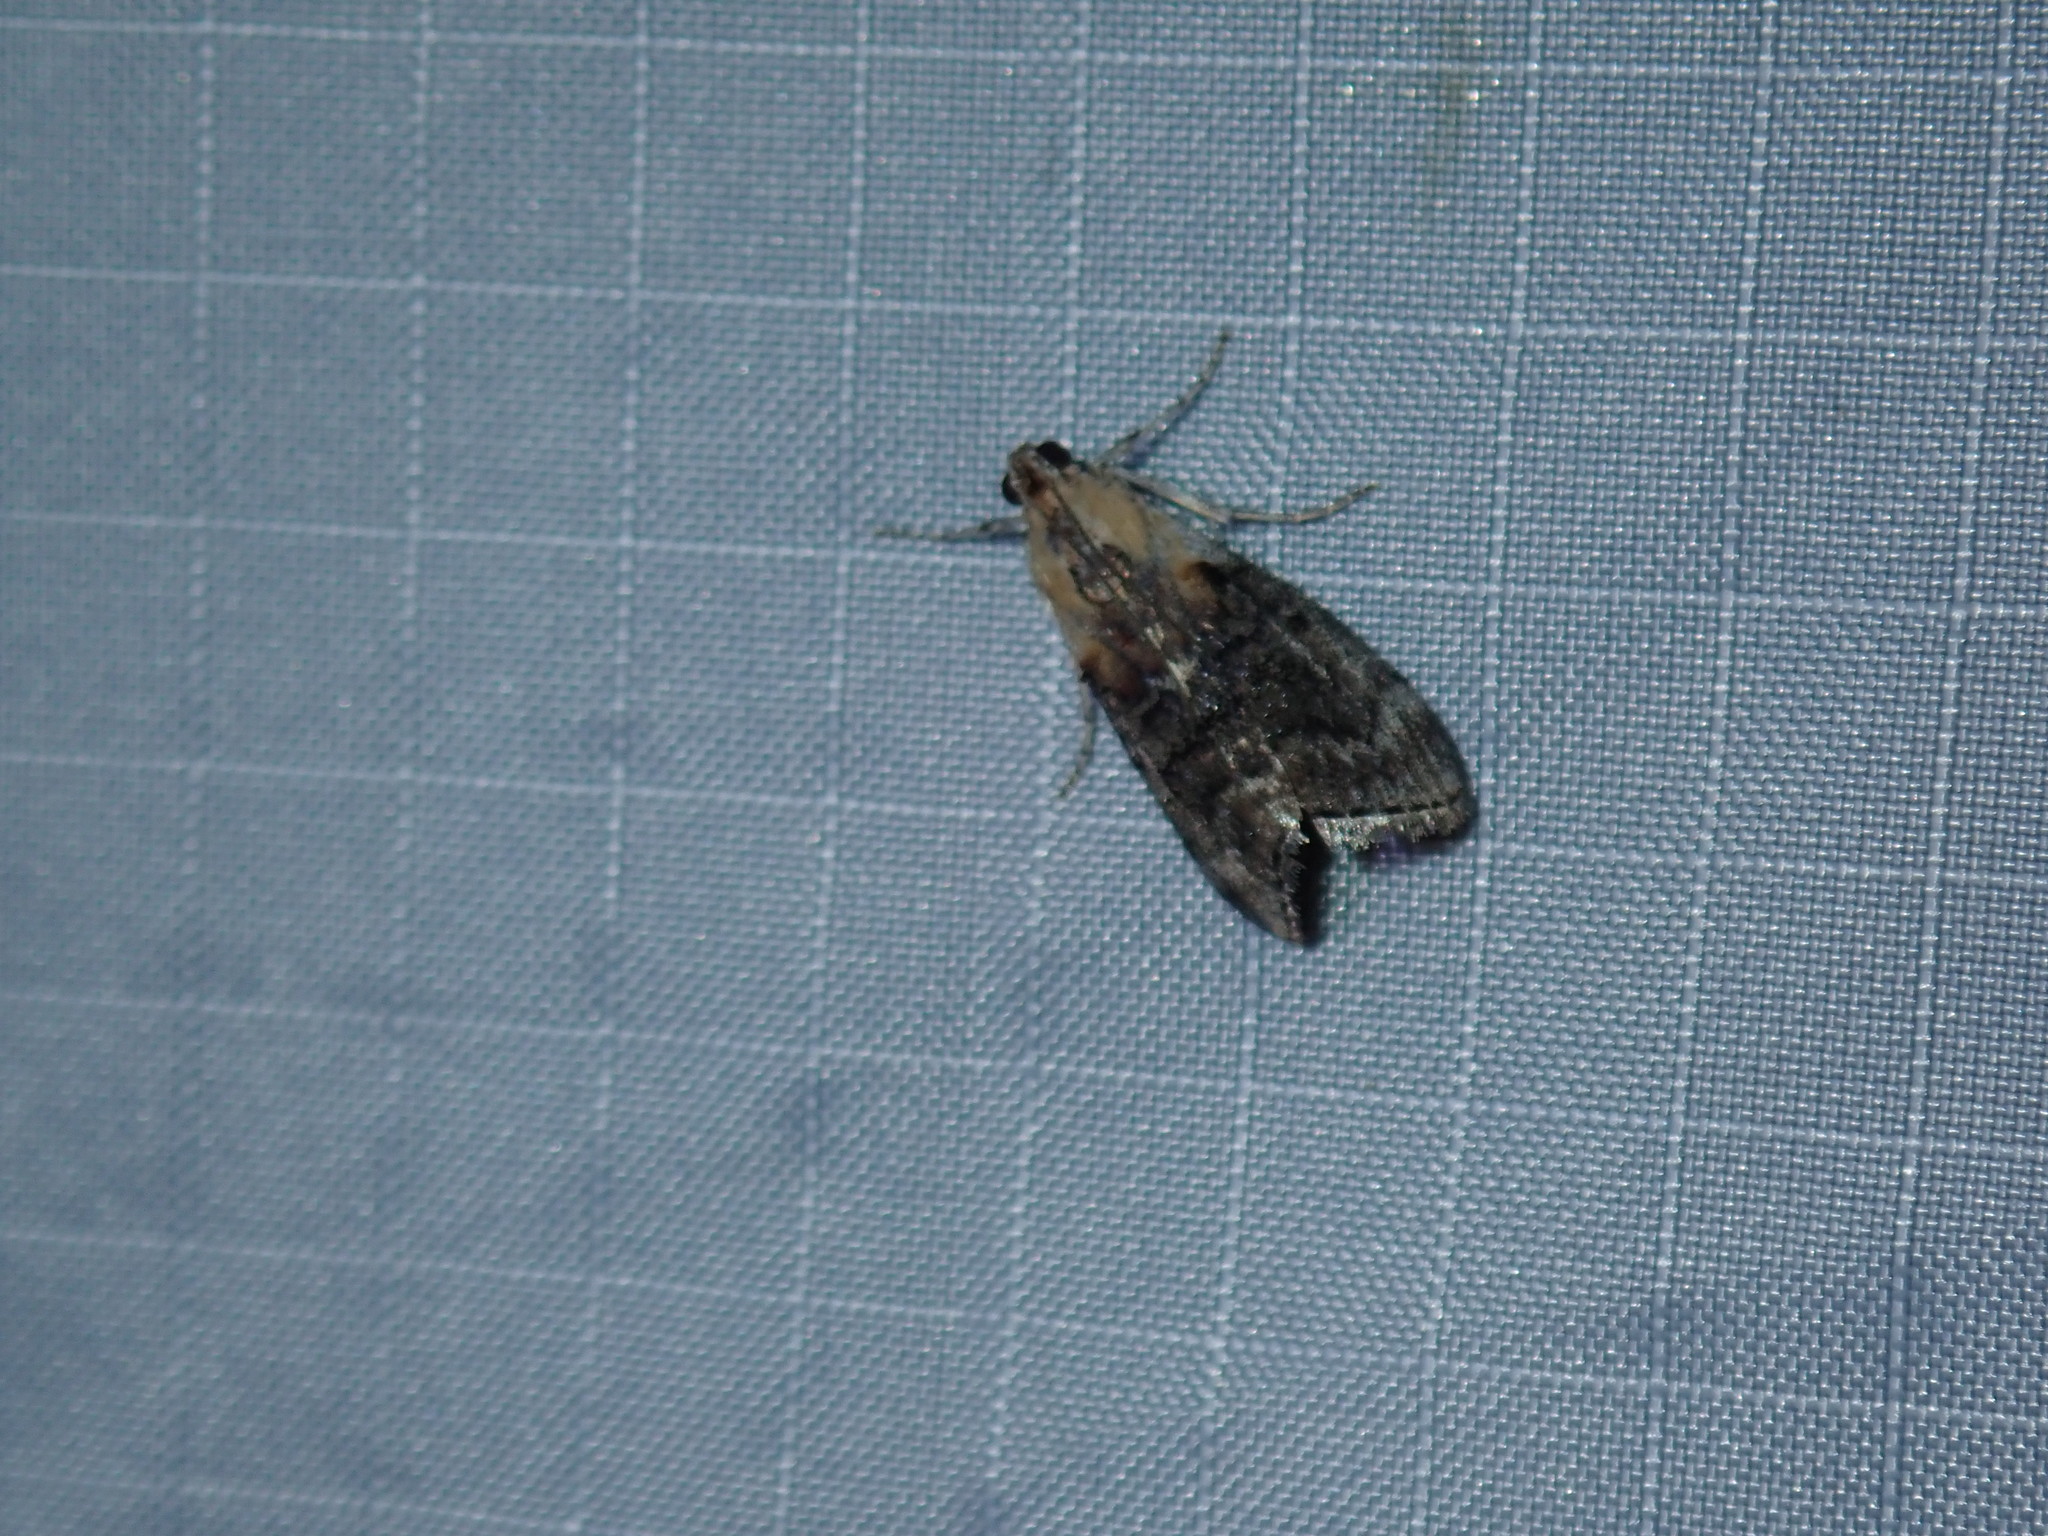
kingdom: Animalia
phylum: Arthropoda
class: Insecta
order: Lepidoptera
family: Pyralidae
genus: Pococera
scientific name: Pococera expandens
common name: Striped oak webworm moth
